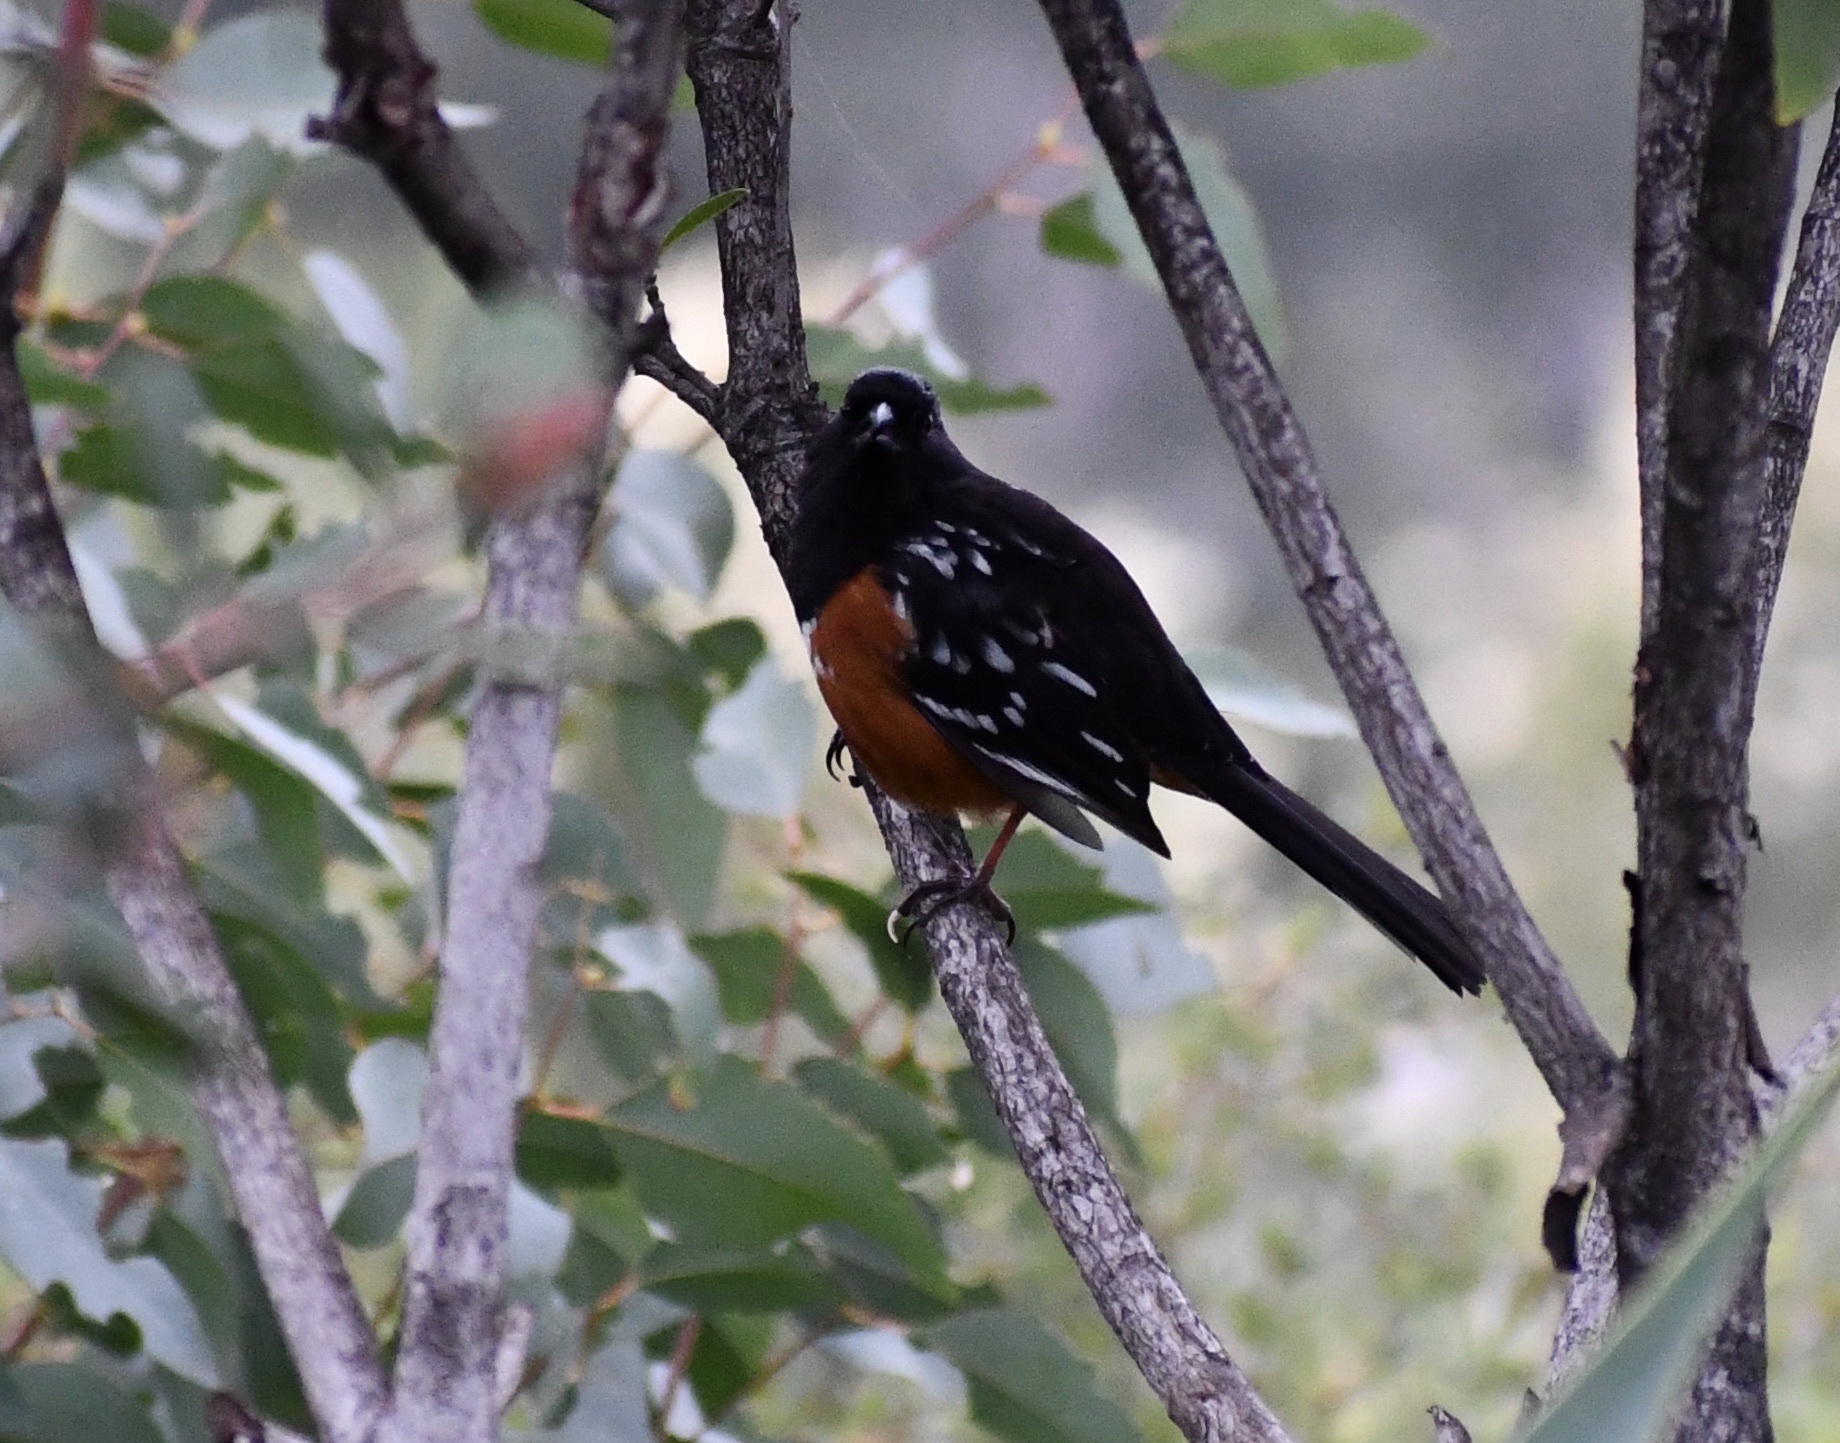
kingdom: Animalia
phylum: Chordata
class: Aves
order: Passeriformes
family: Passerellidae
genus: Pipilo
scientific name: Pipilo maculatus
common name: Spotted towhee
